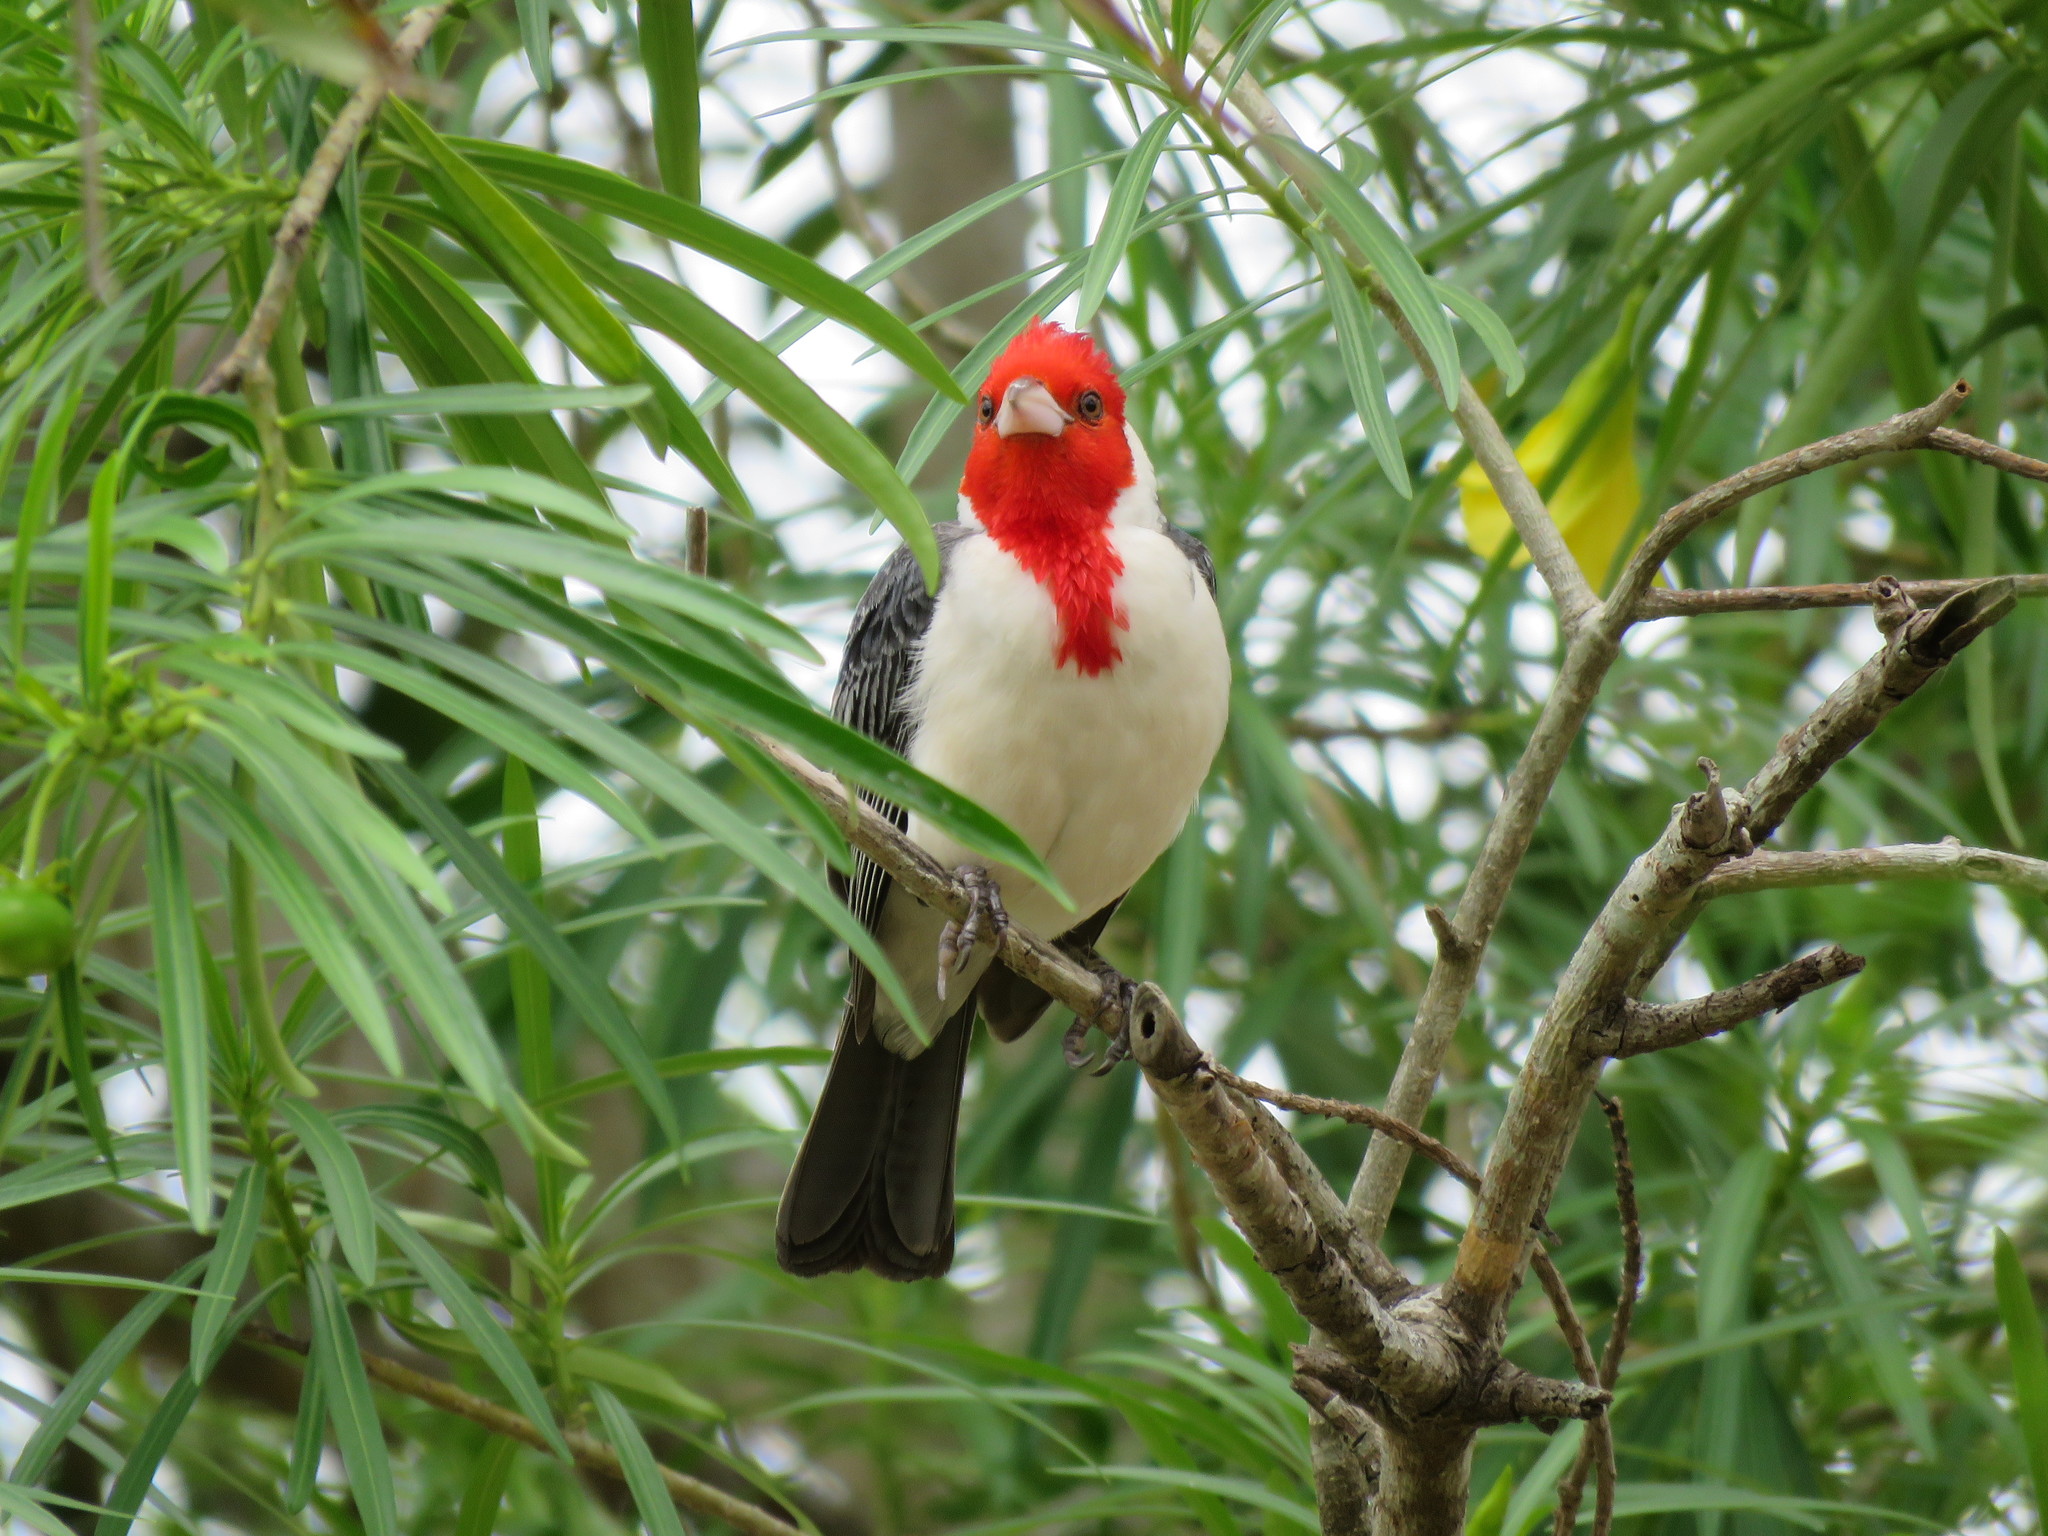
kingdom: Animalia
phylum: Chordata
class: Aves
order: Passeriformes
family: Thraupidae
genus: Paroaria
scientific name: Paroaria coronata
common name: Red-crested cardinal
